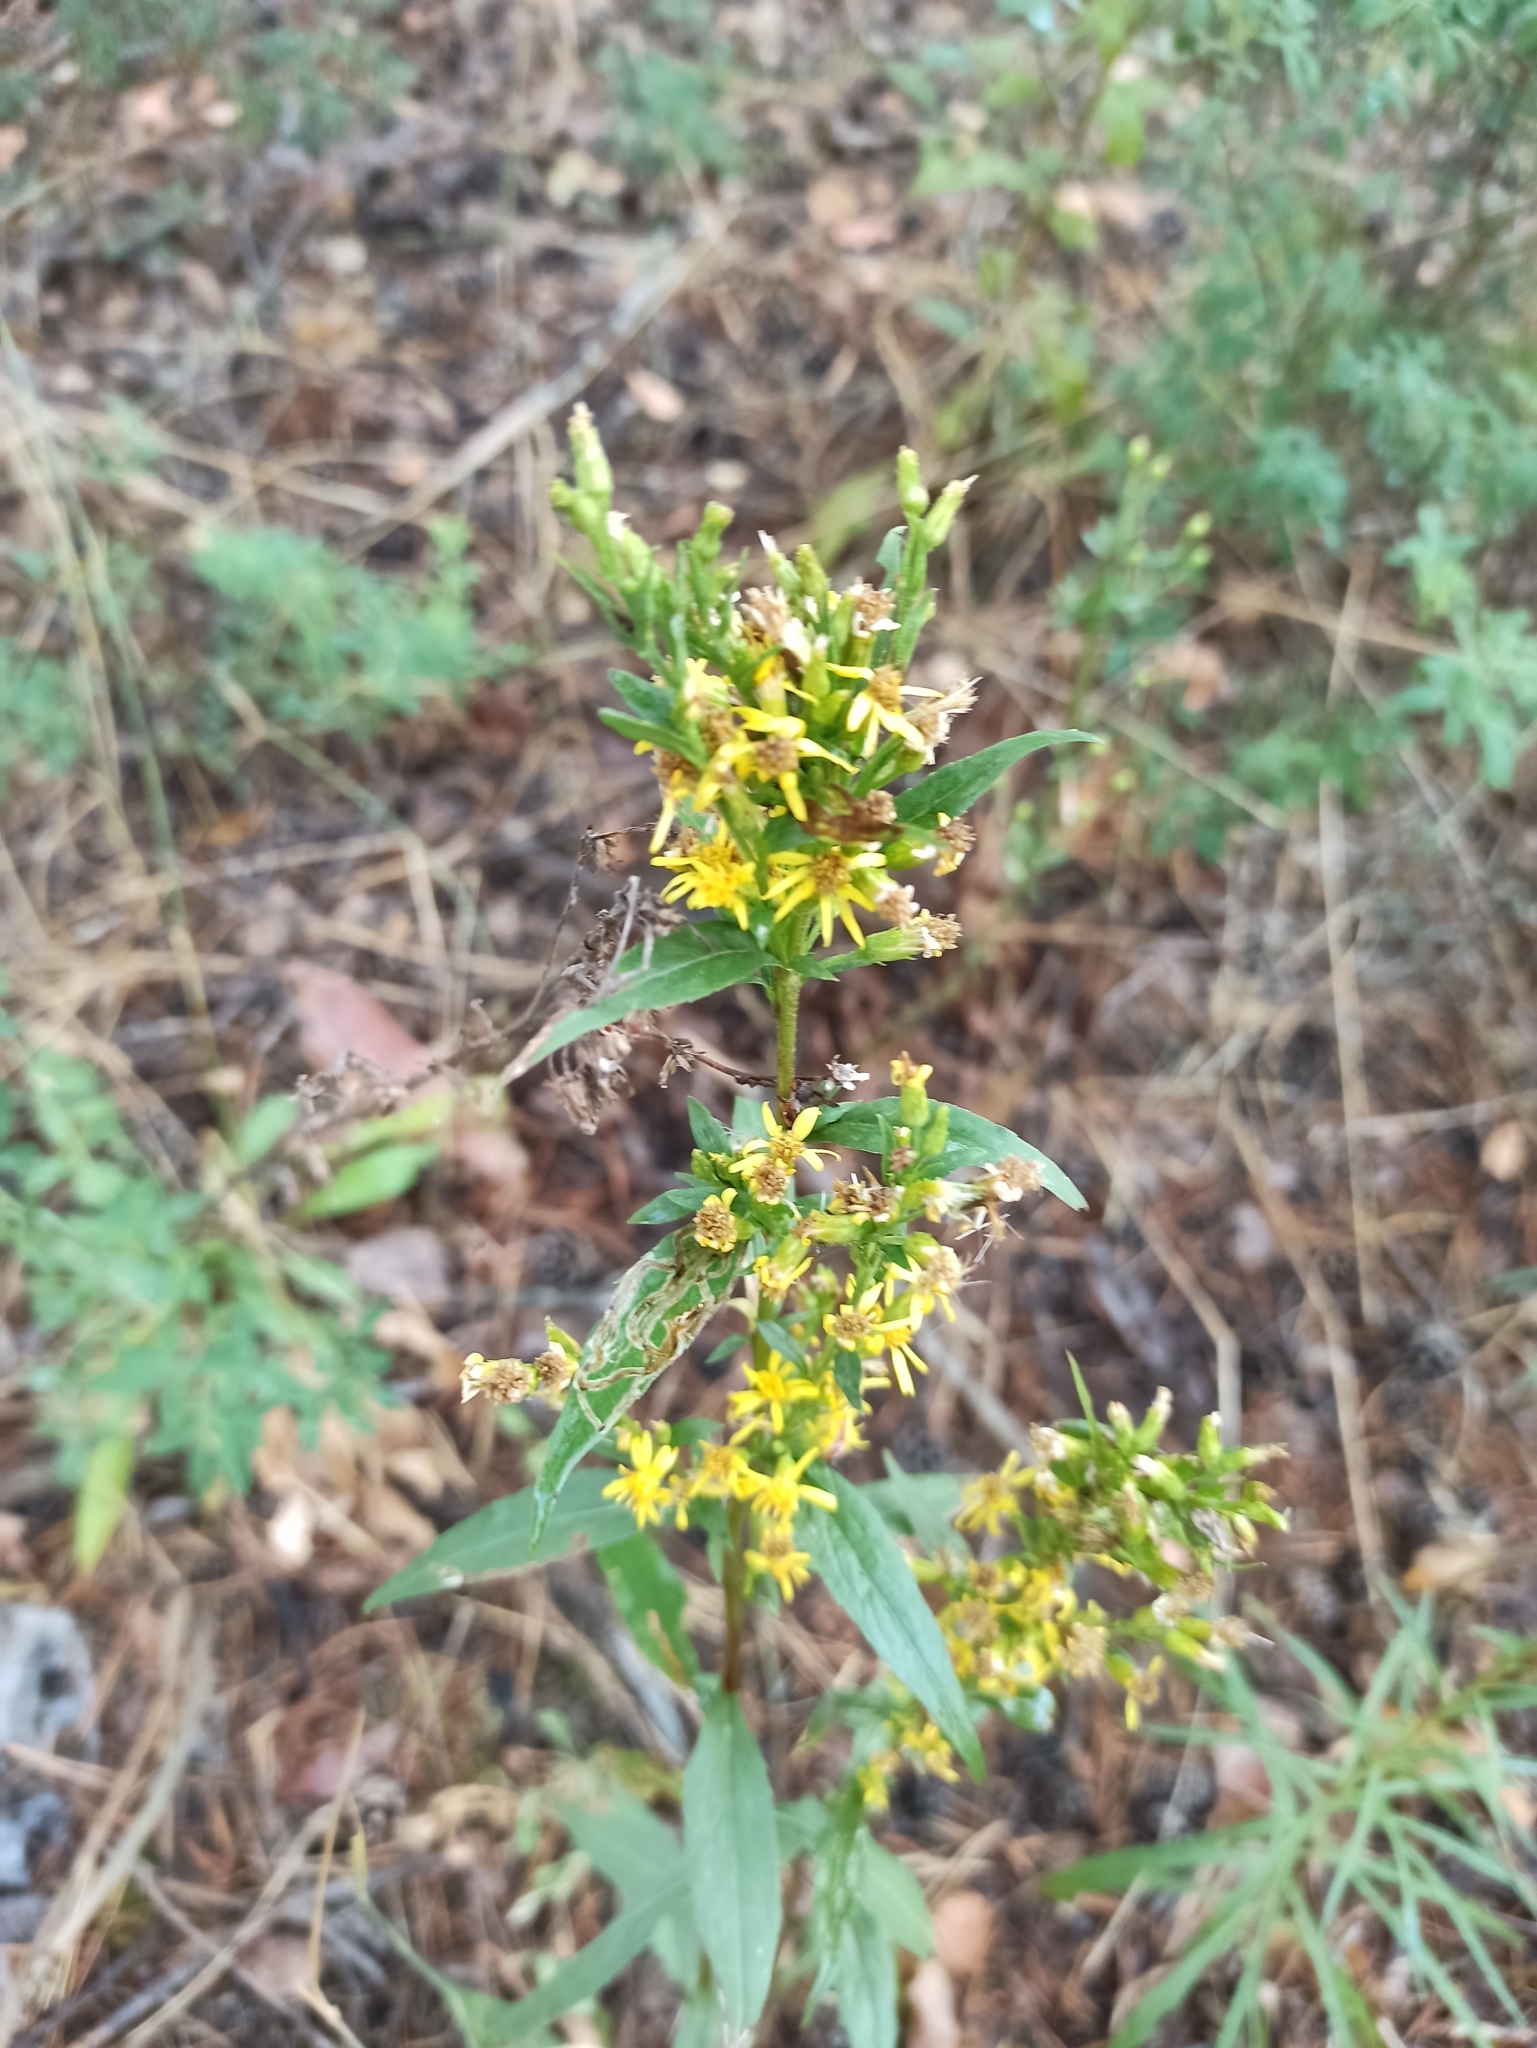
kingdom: Plantae
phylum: Tracheophyta
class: Magnoliopsida
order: Asterales
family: Asteraceae
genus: Solidago
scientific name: Solidago virgaurea
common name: Goldenrod
